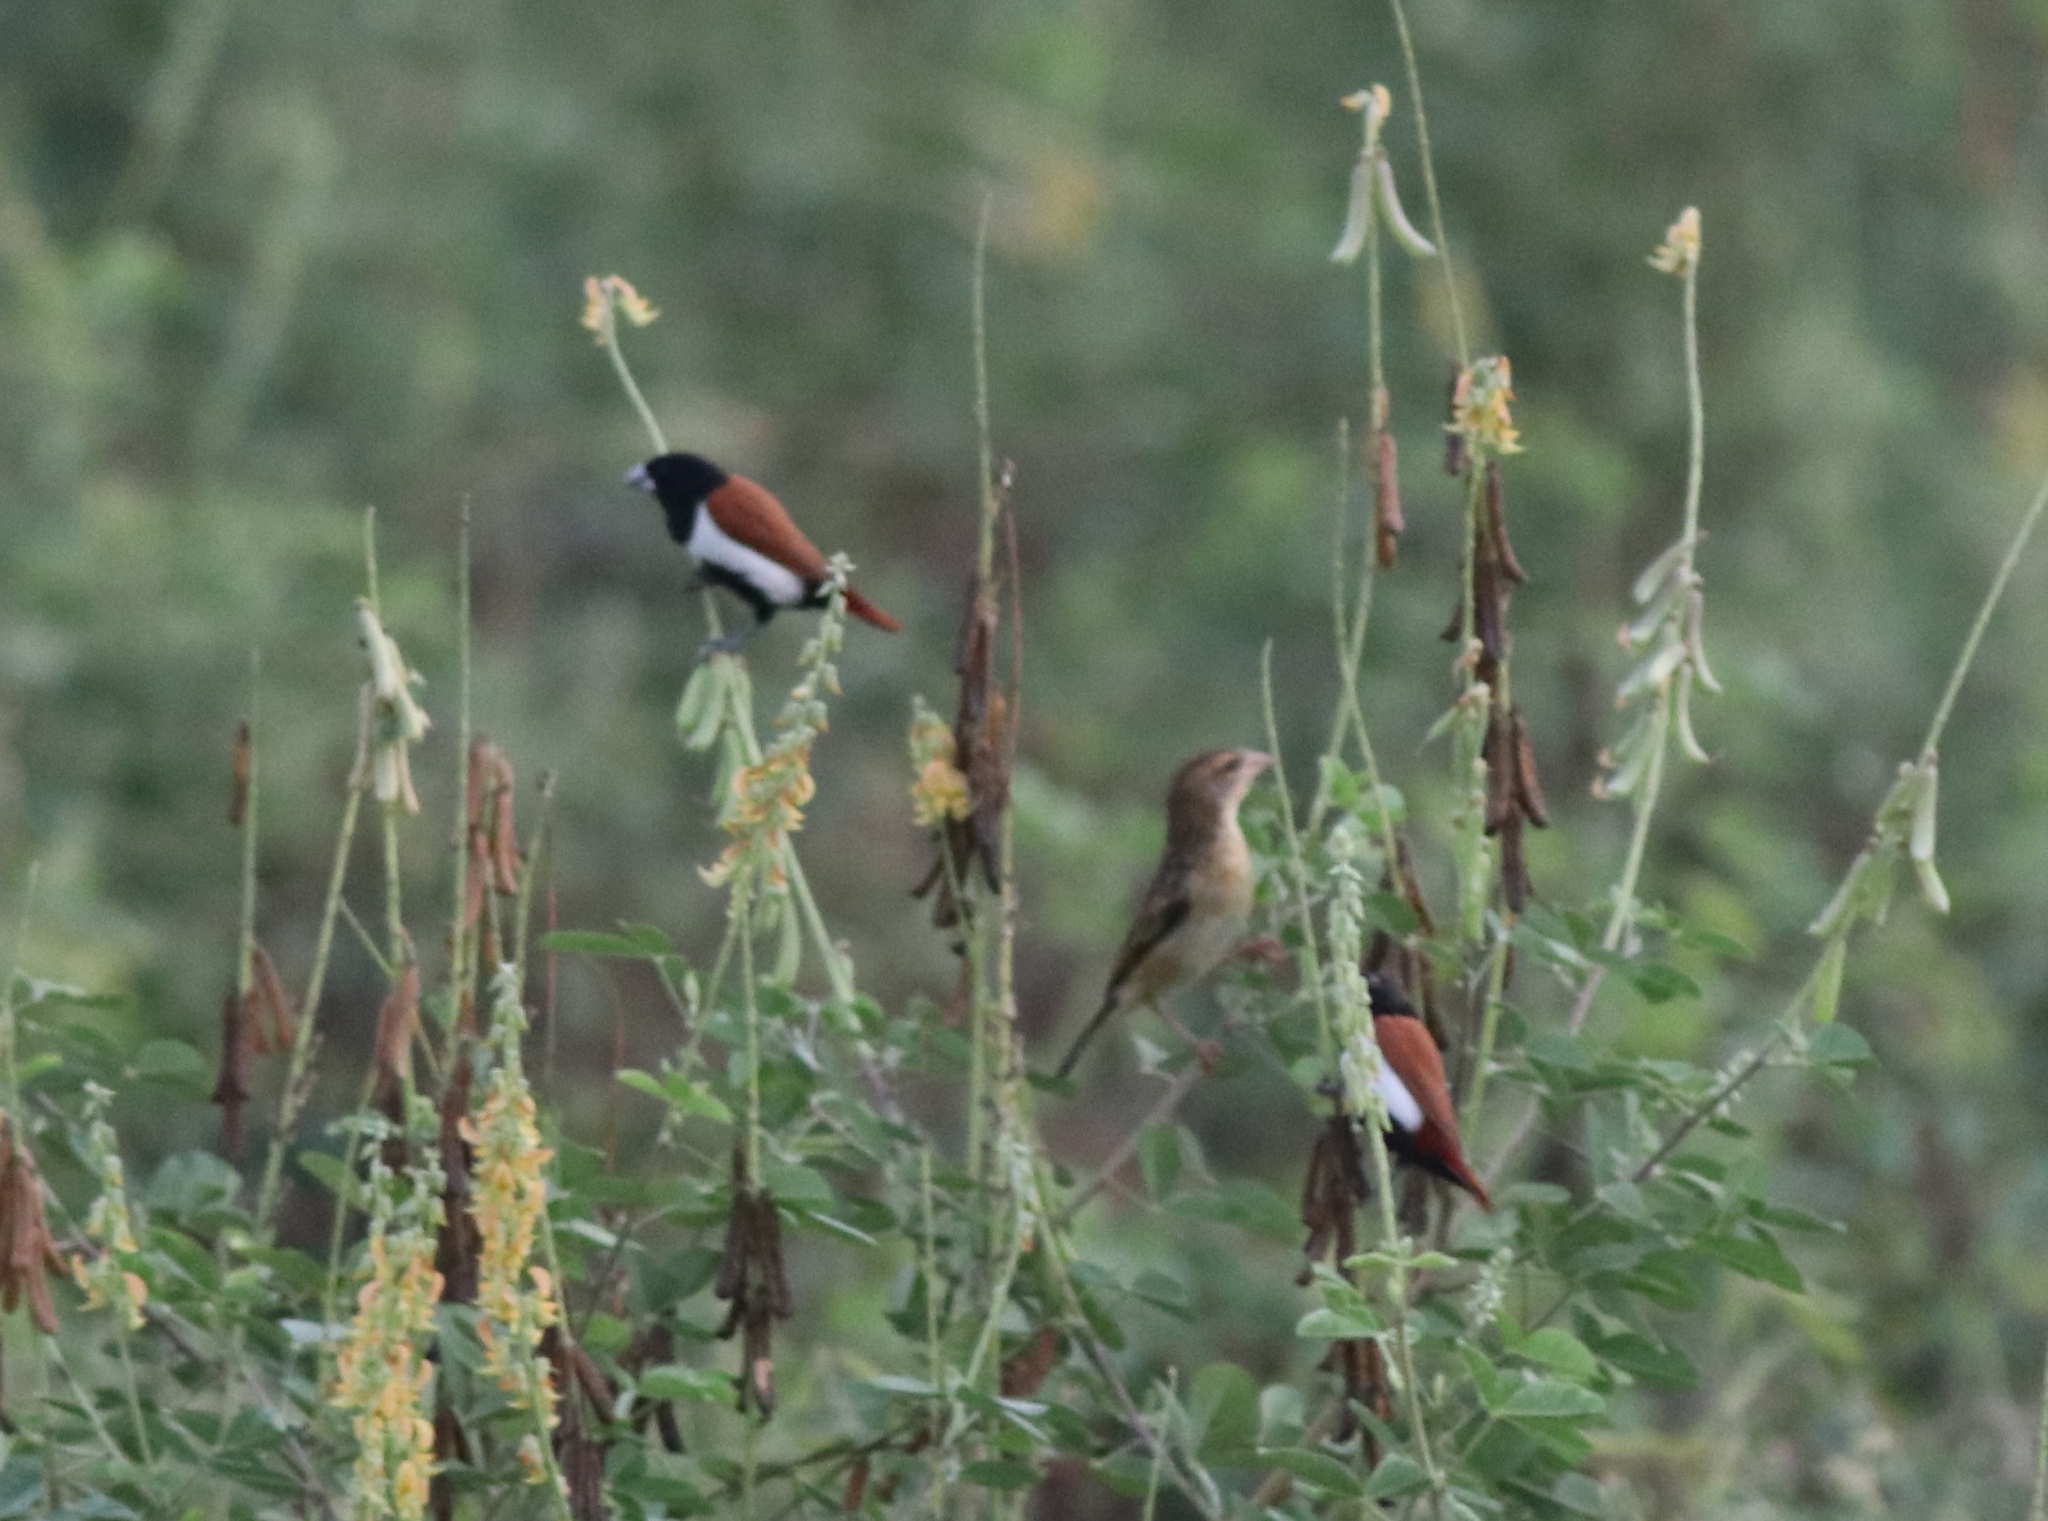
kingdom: Animalia
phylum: Chordata
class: Aves
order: Passeriformes
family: Estrildidae
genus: Lonchura
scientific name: Lonchura malacca
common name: Tricolored munia
